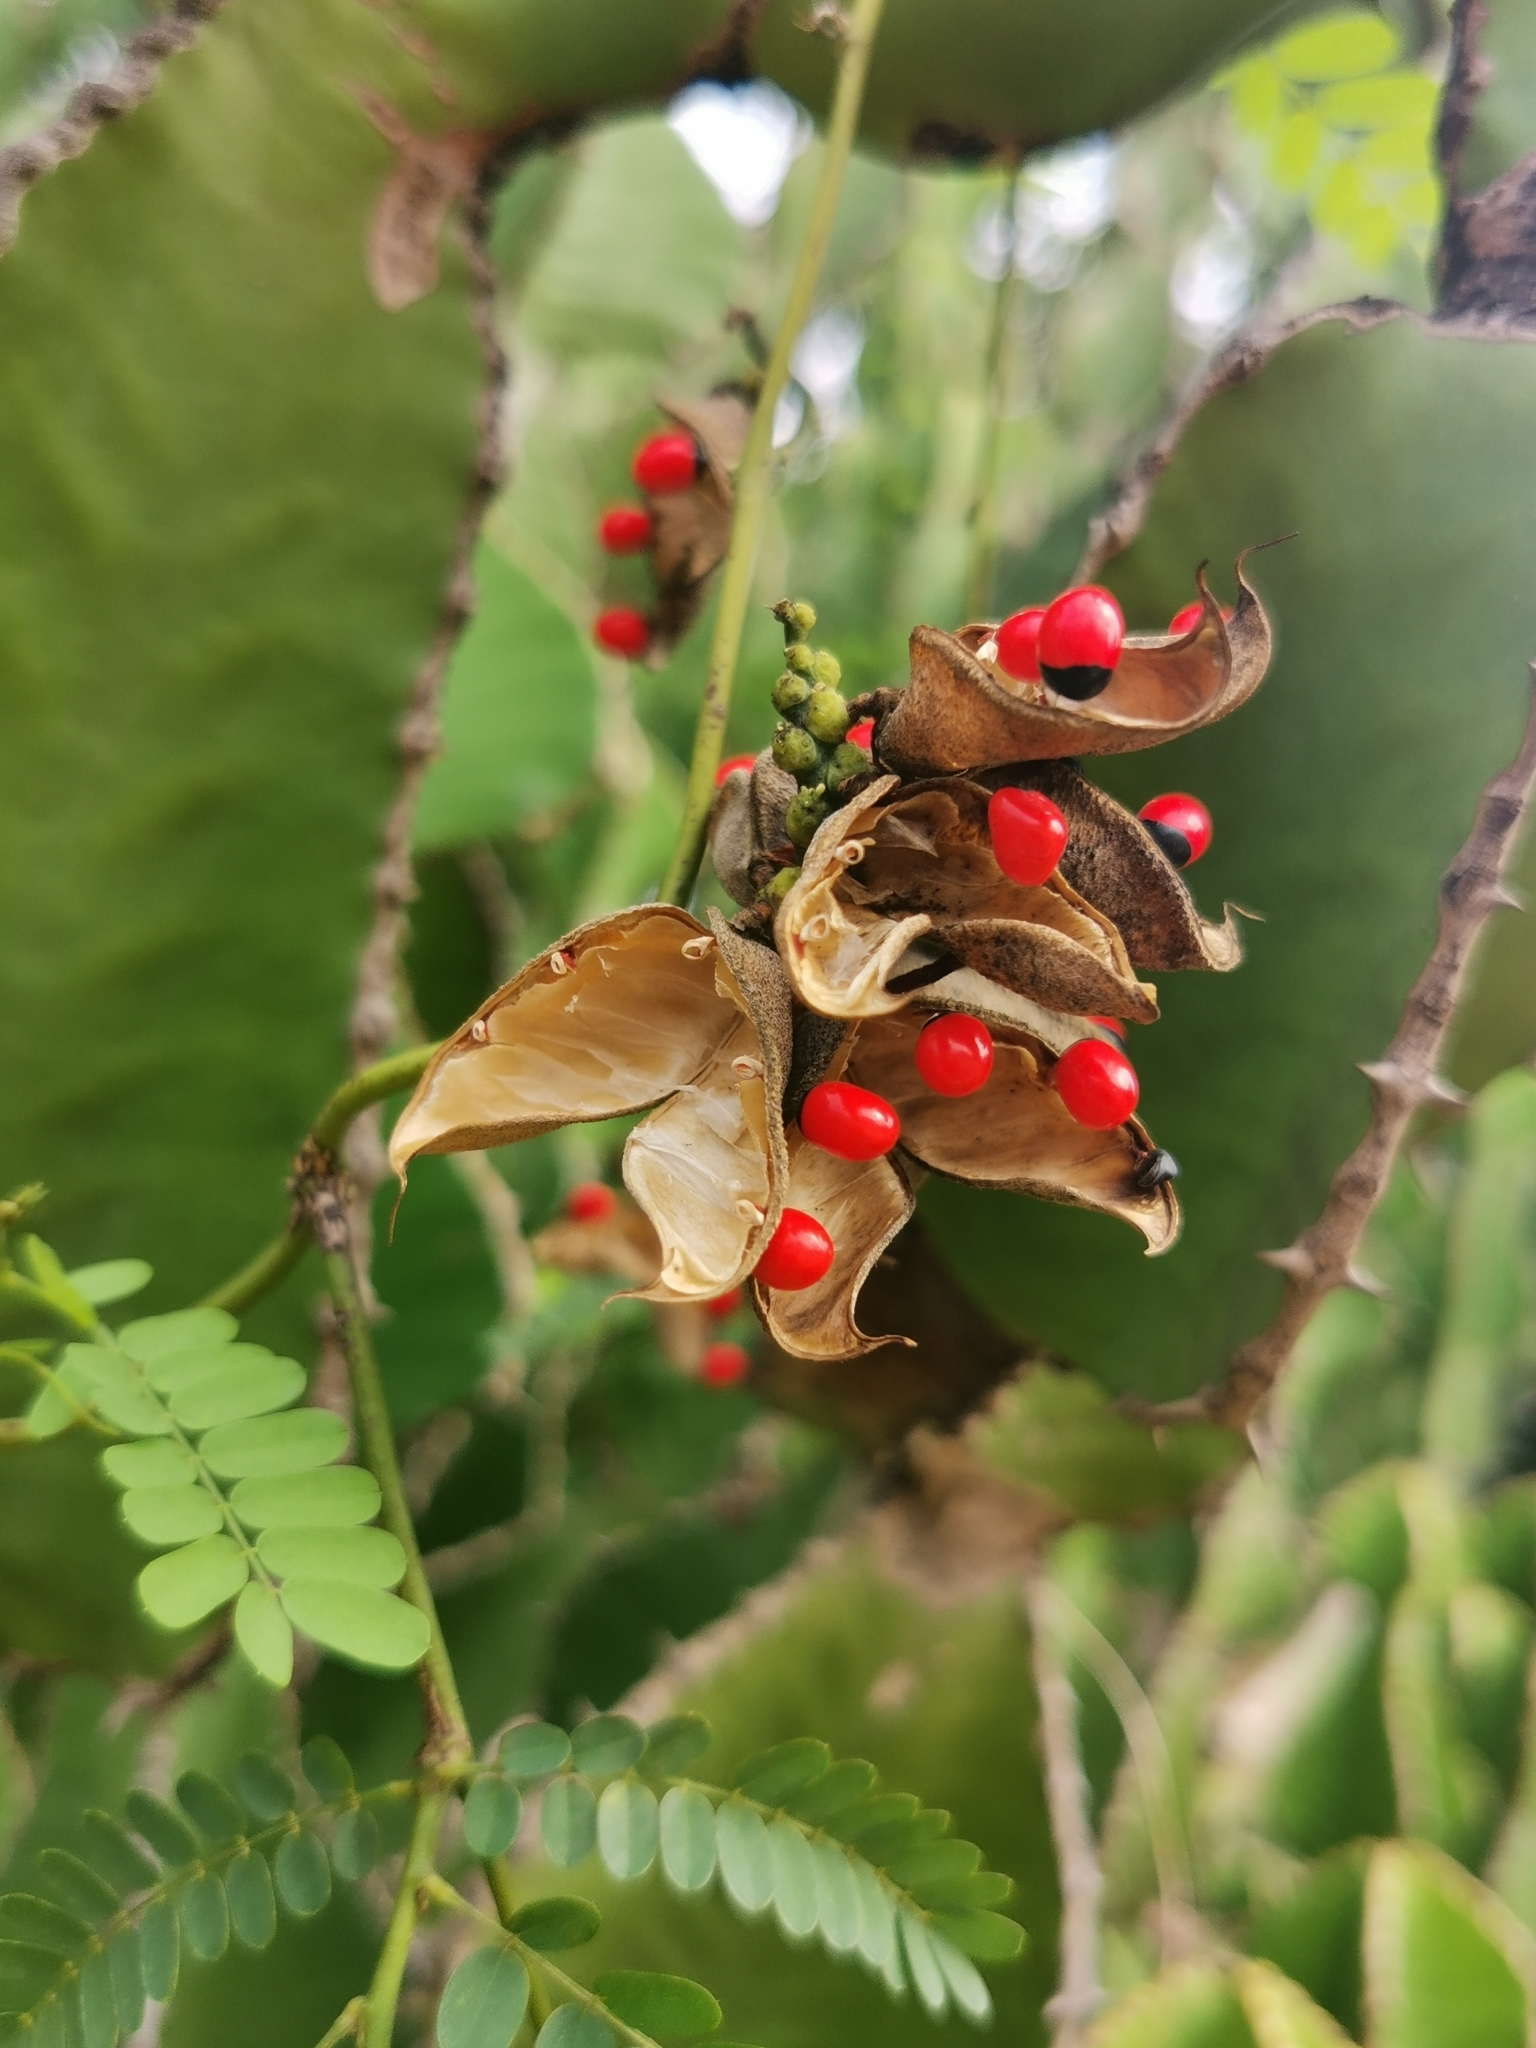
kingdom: Plantae
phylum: Tracheophyta
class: Magnoliopsida
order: Fabales
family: Fabaceae
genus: Abrus
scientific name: Abrus precatorius
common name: Rosarypea
